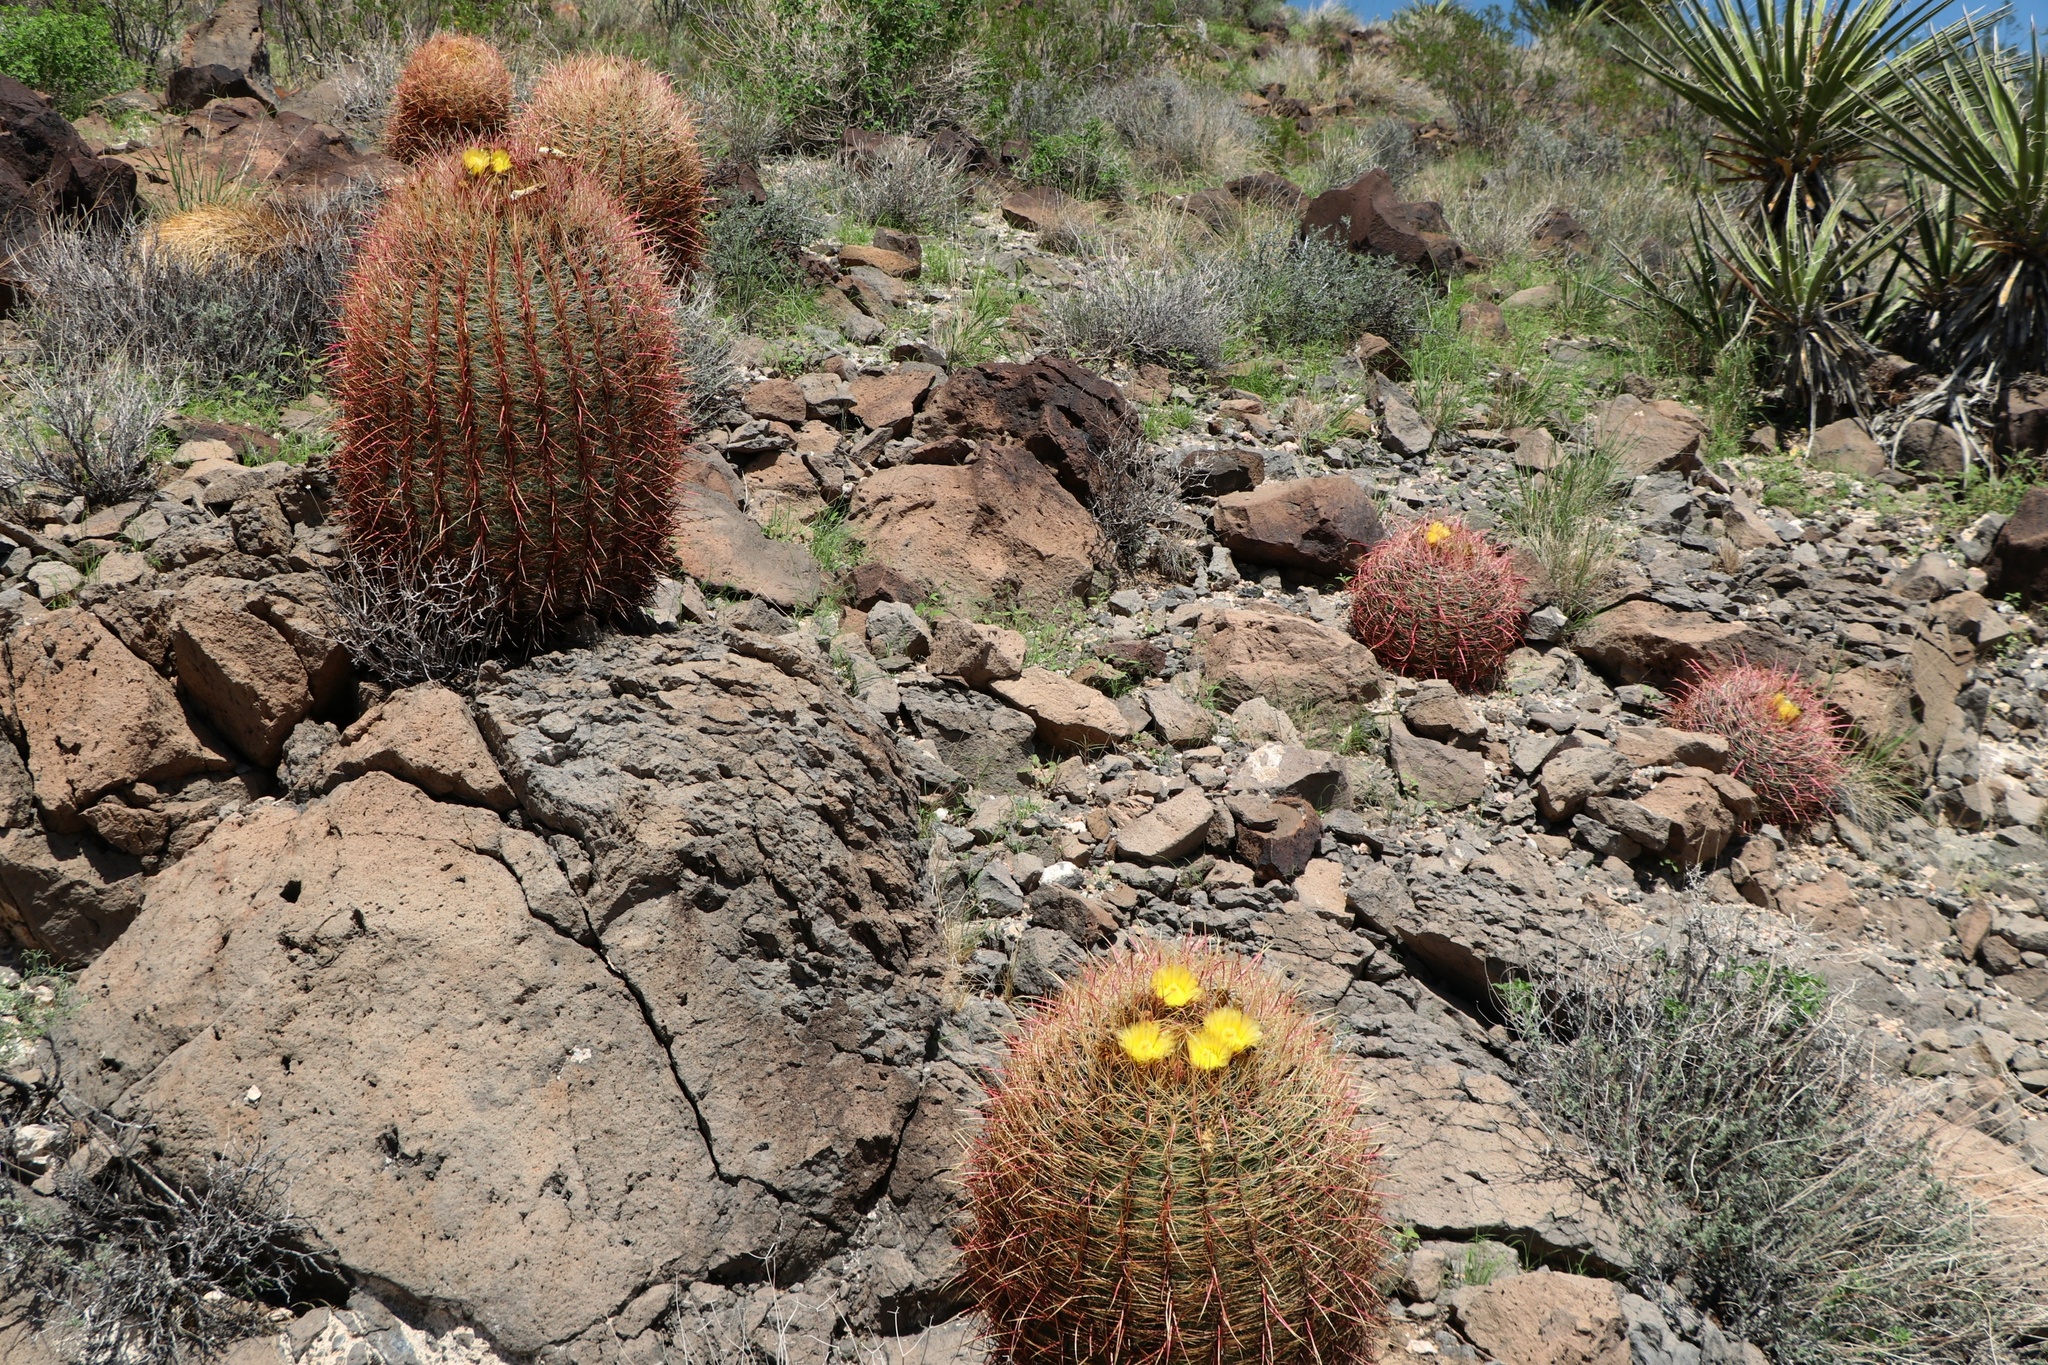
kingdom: Plantae
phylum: Tracheophyta
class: Magnoliopsida
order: Caryophyllales
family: Cactaceae
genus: Ferocactus
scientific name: Ferocactus cylindraceus
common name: California barrel cactus
